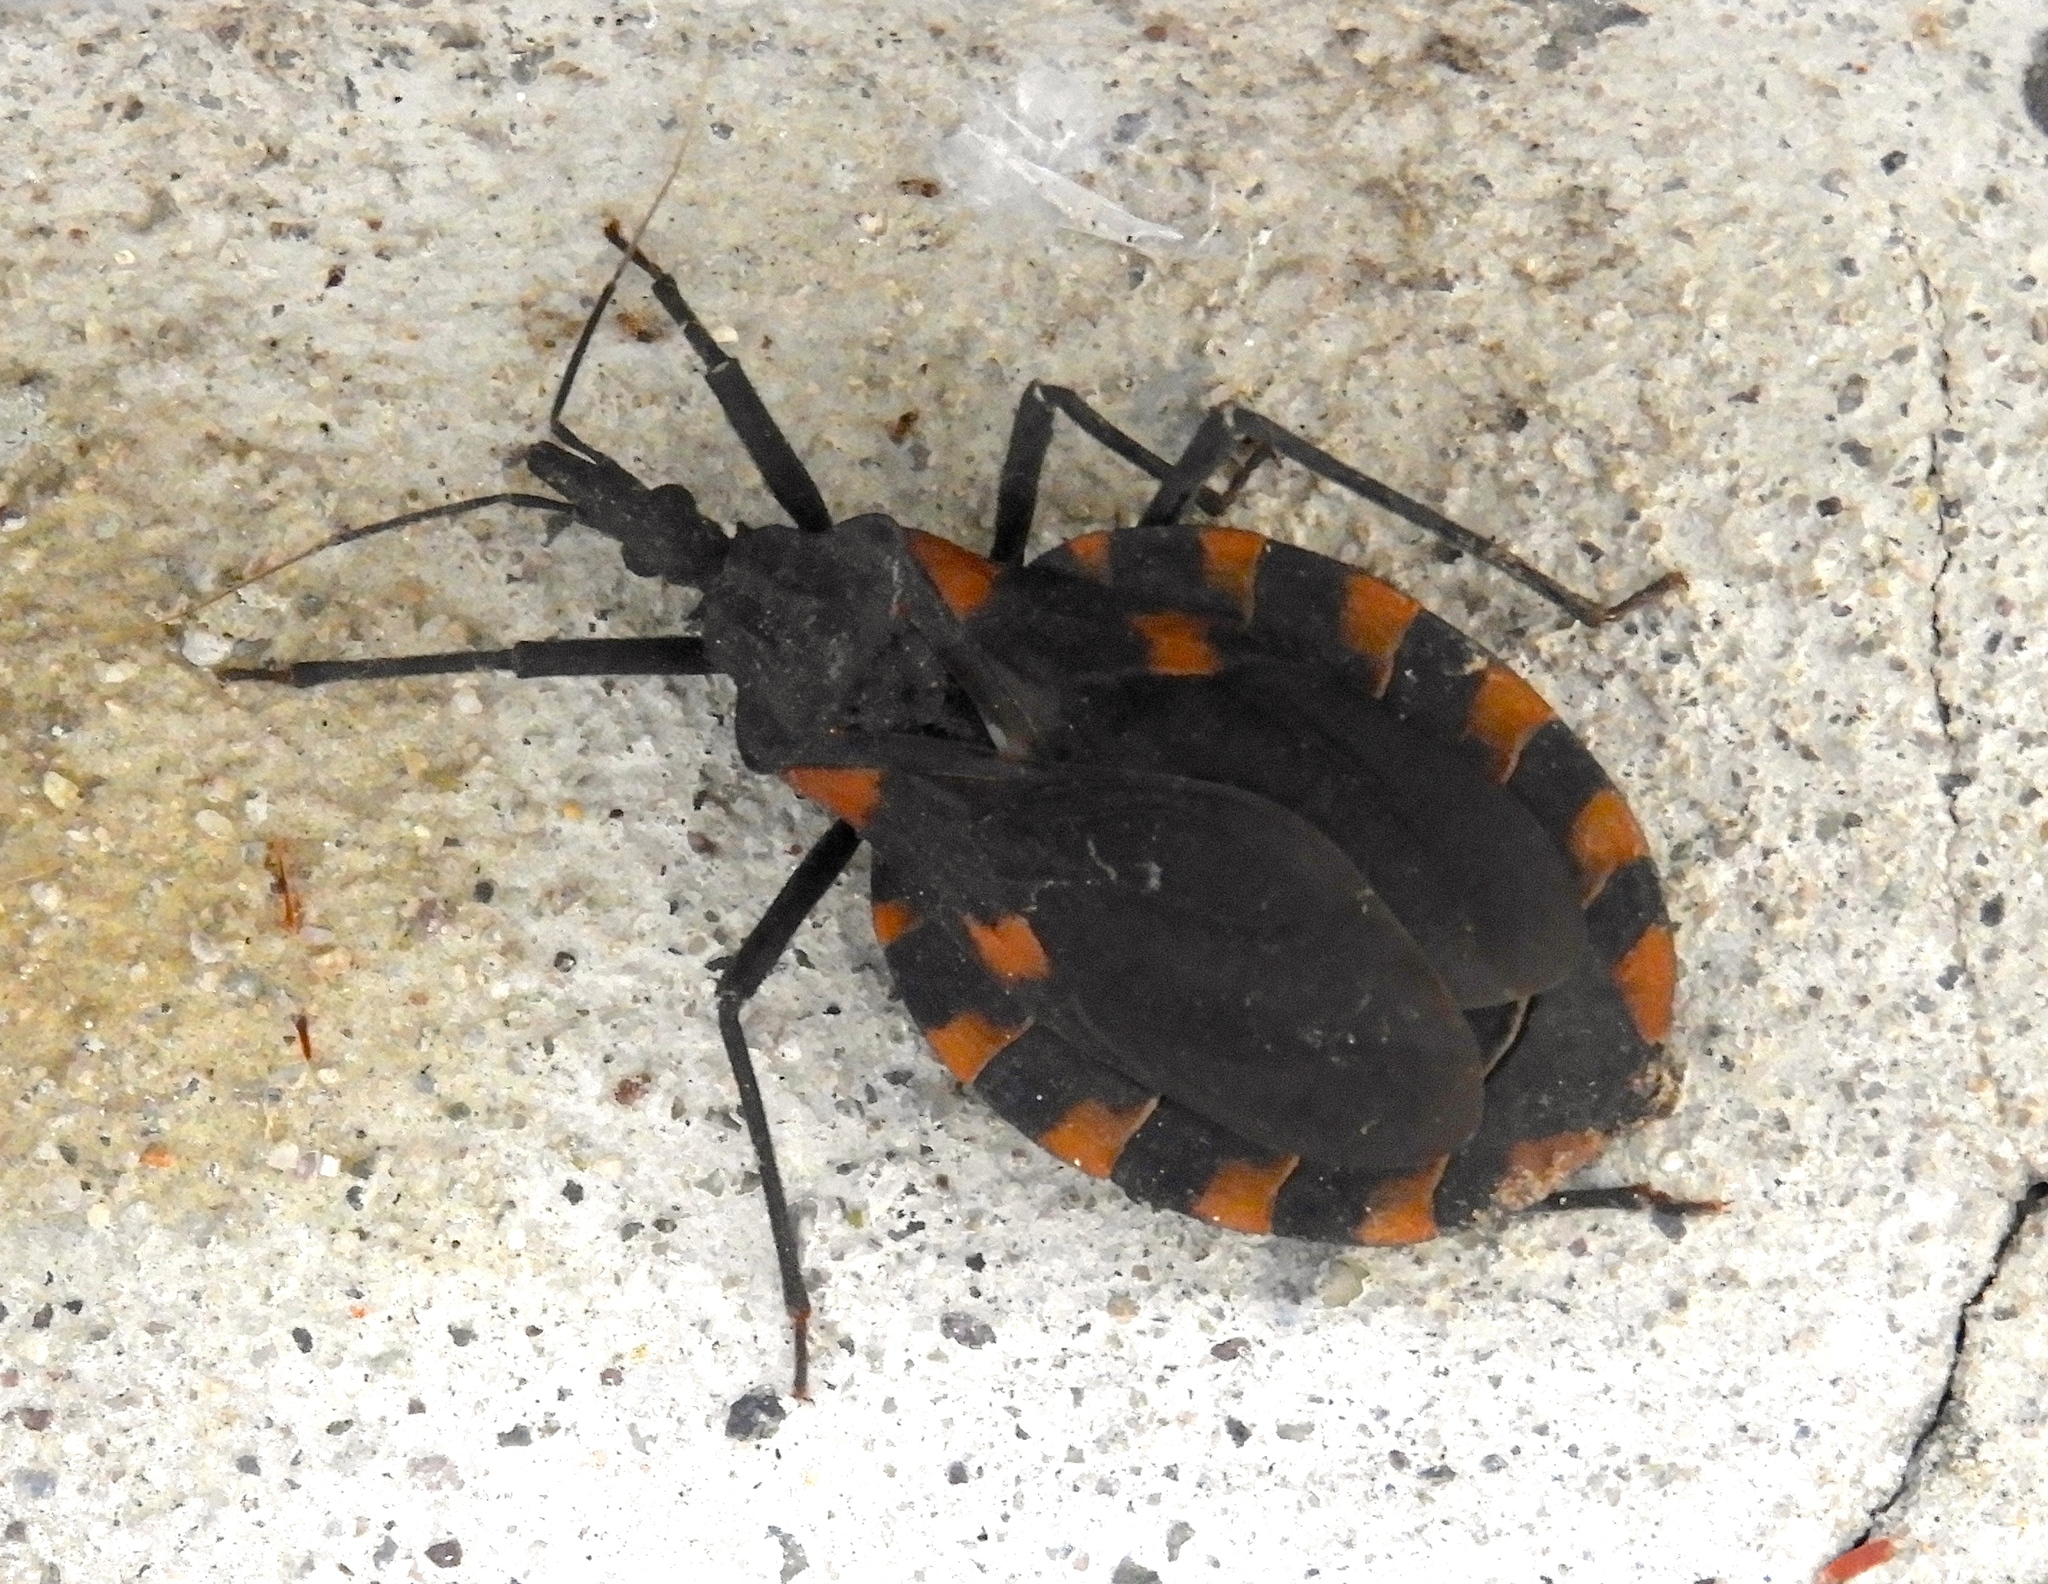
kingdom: Animalia
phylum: Arthropoda
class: Insecta
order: Hemiptera
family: Reduviidae
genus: Meccus
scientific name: Meccus longipennis
